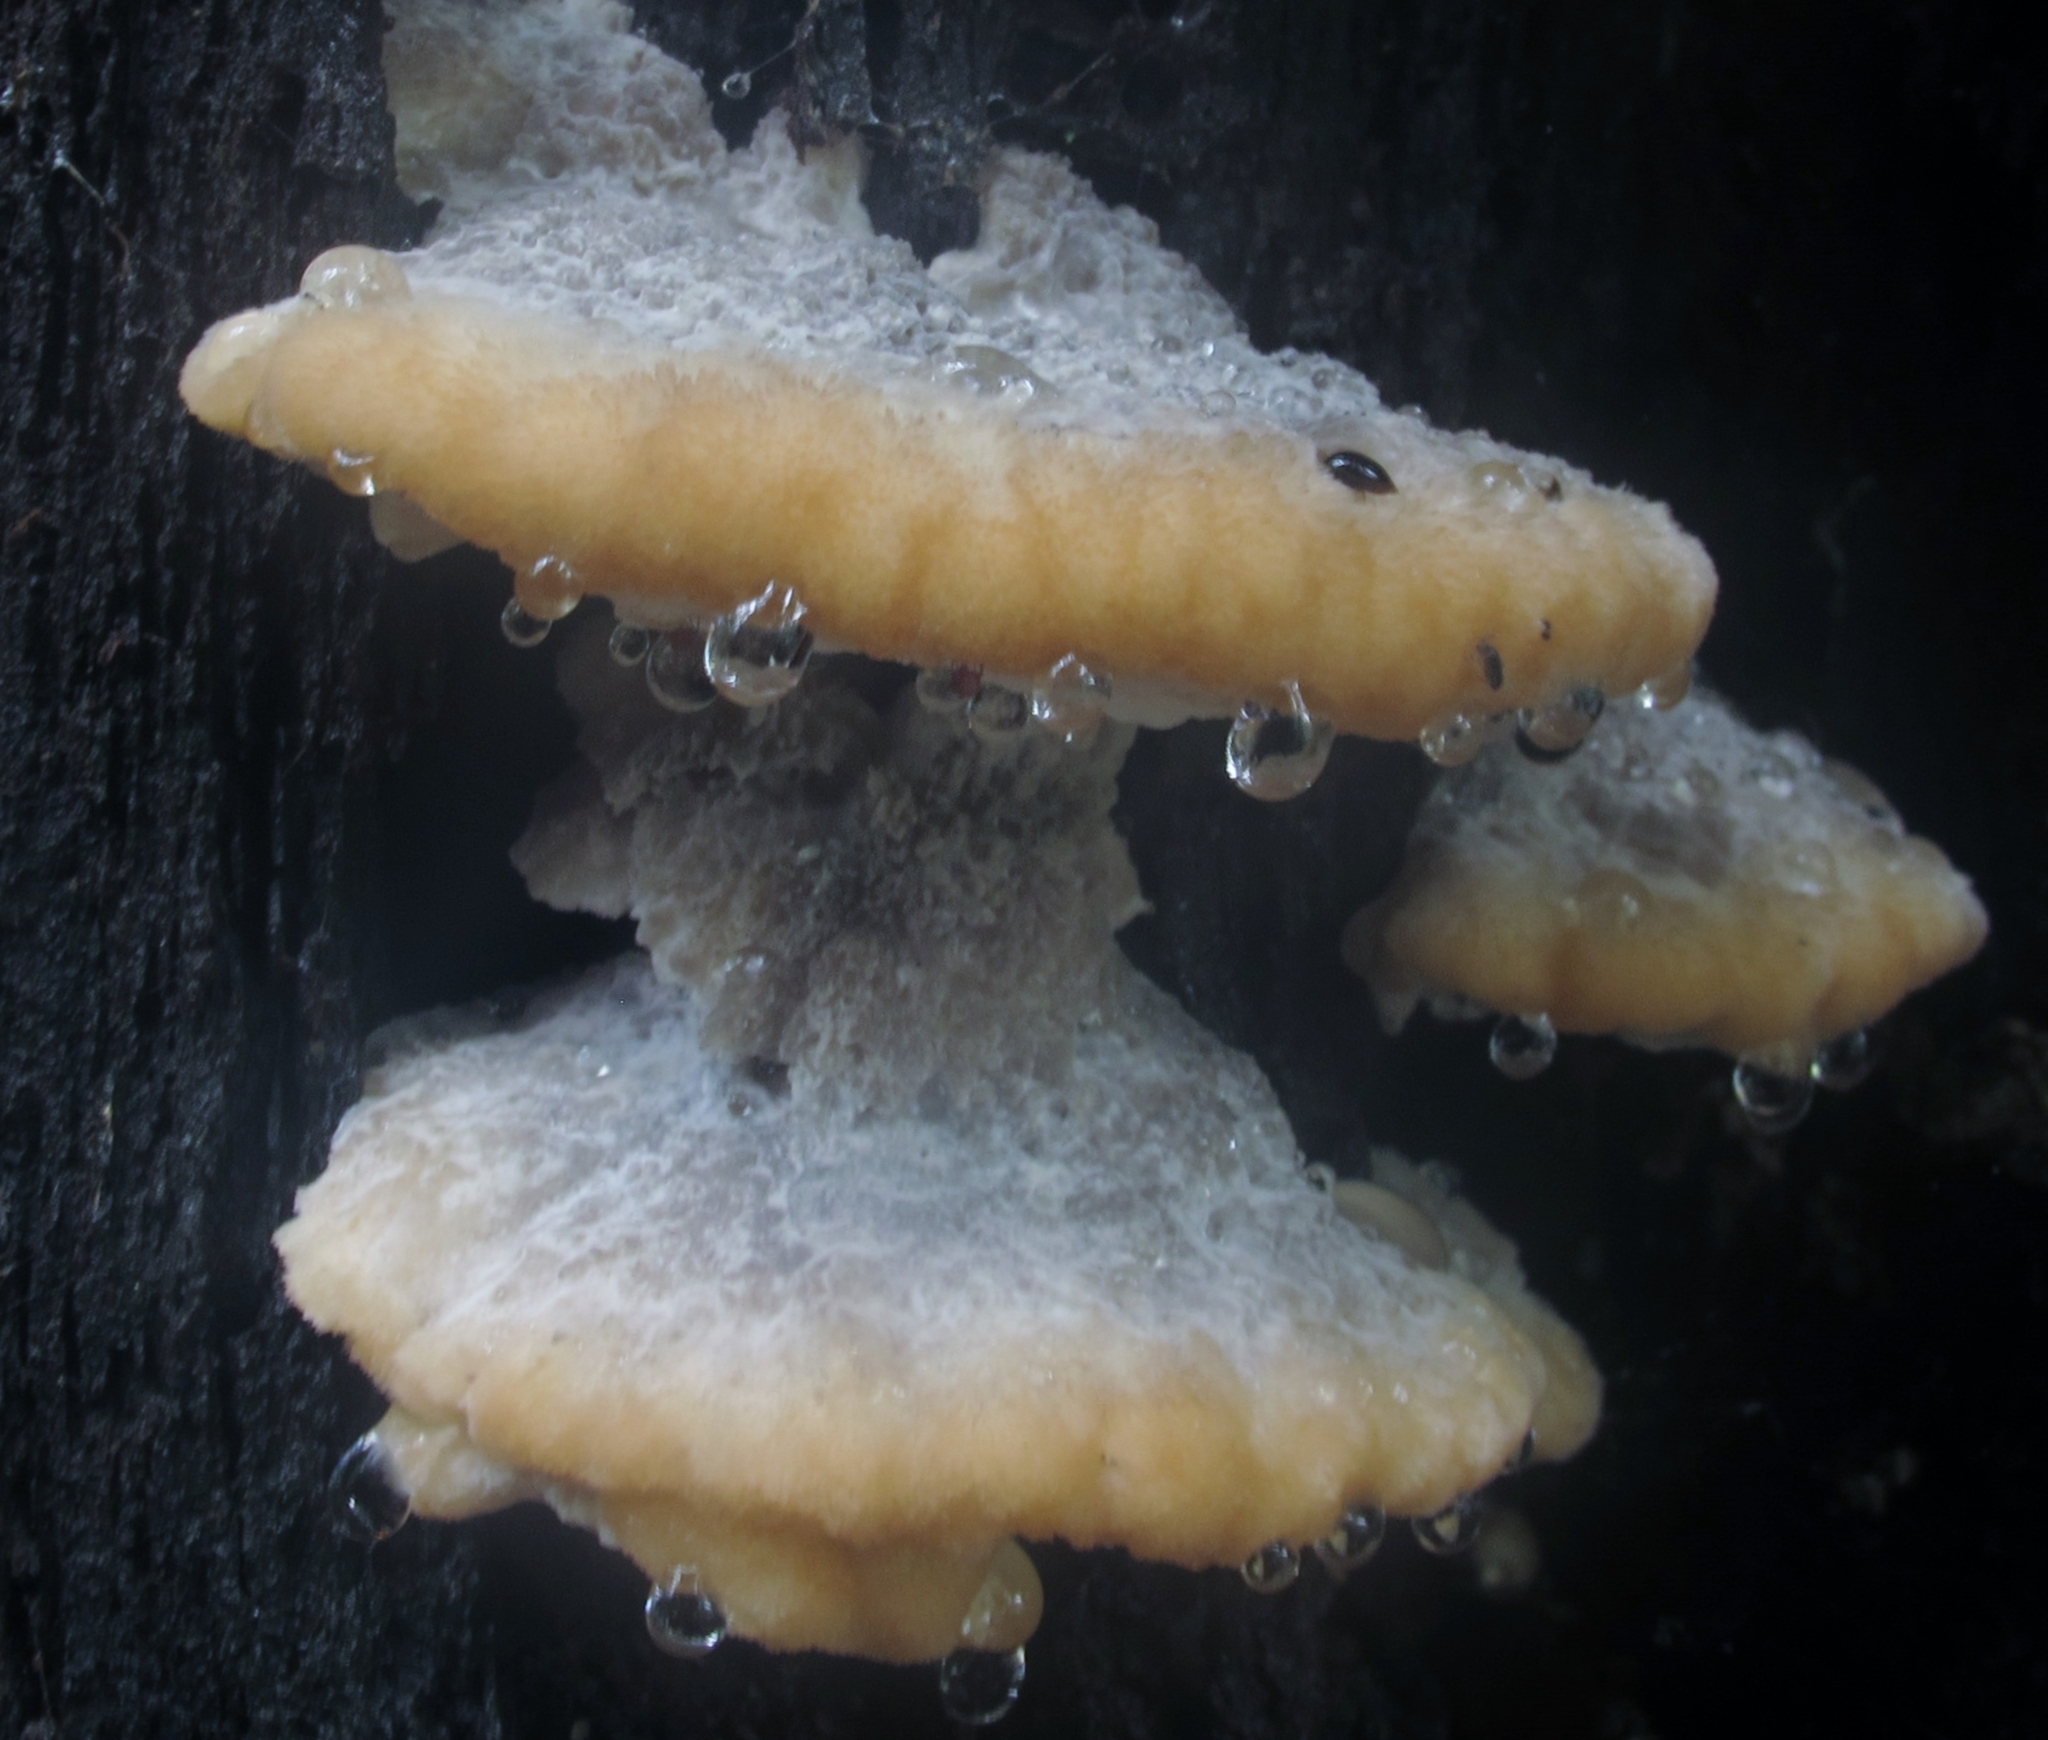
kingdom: Fungi
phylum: Basidiomycota
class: Agaricomycetes
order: Polyporales
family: Fomitopsidaceae
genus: Niveoporofomes
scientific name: Niveoporofomes spraguei
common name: Green cheese polypore
